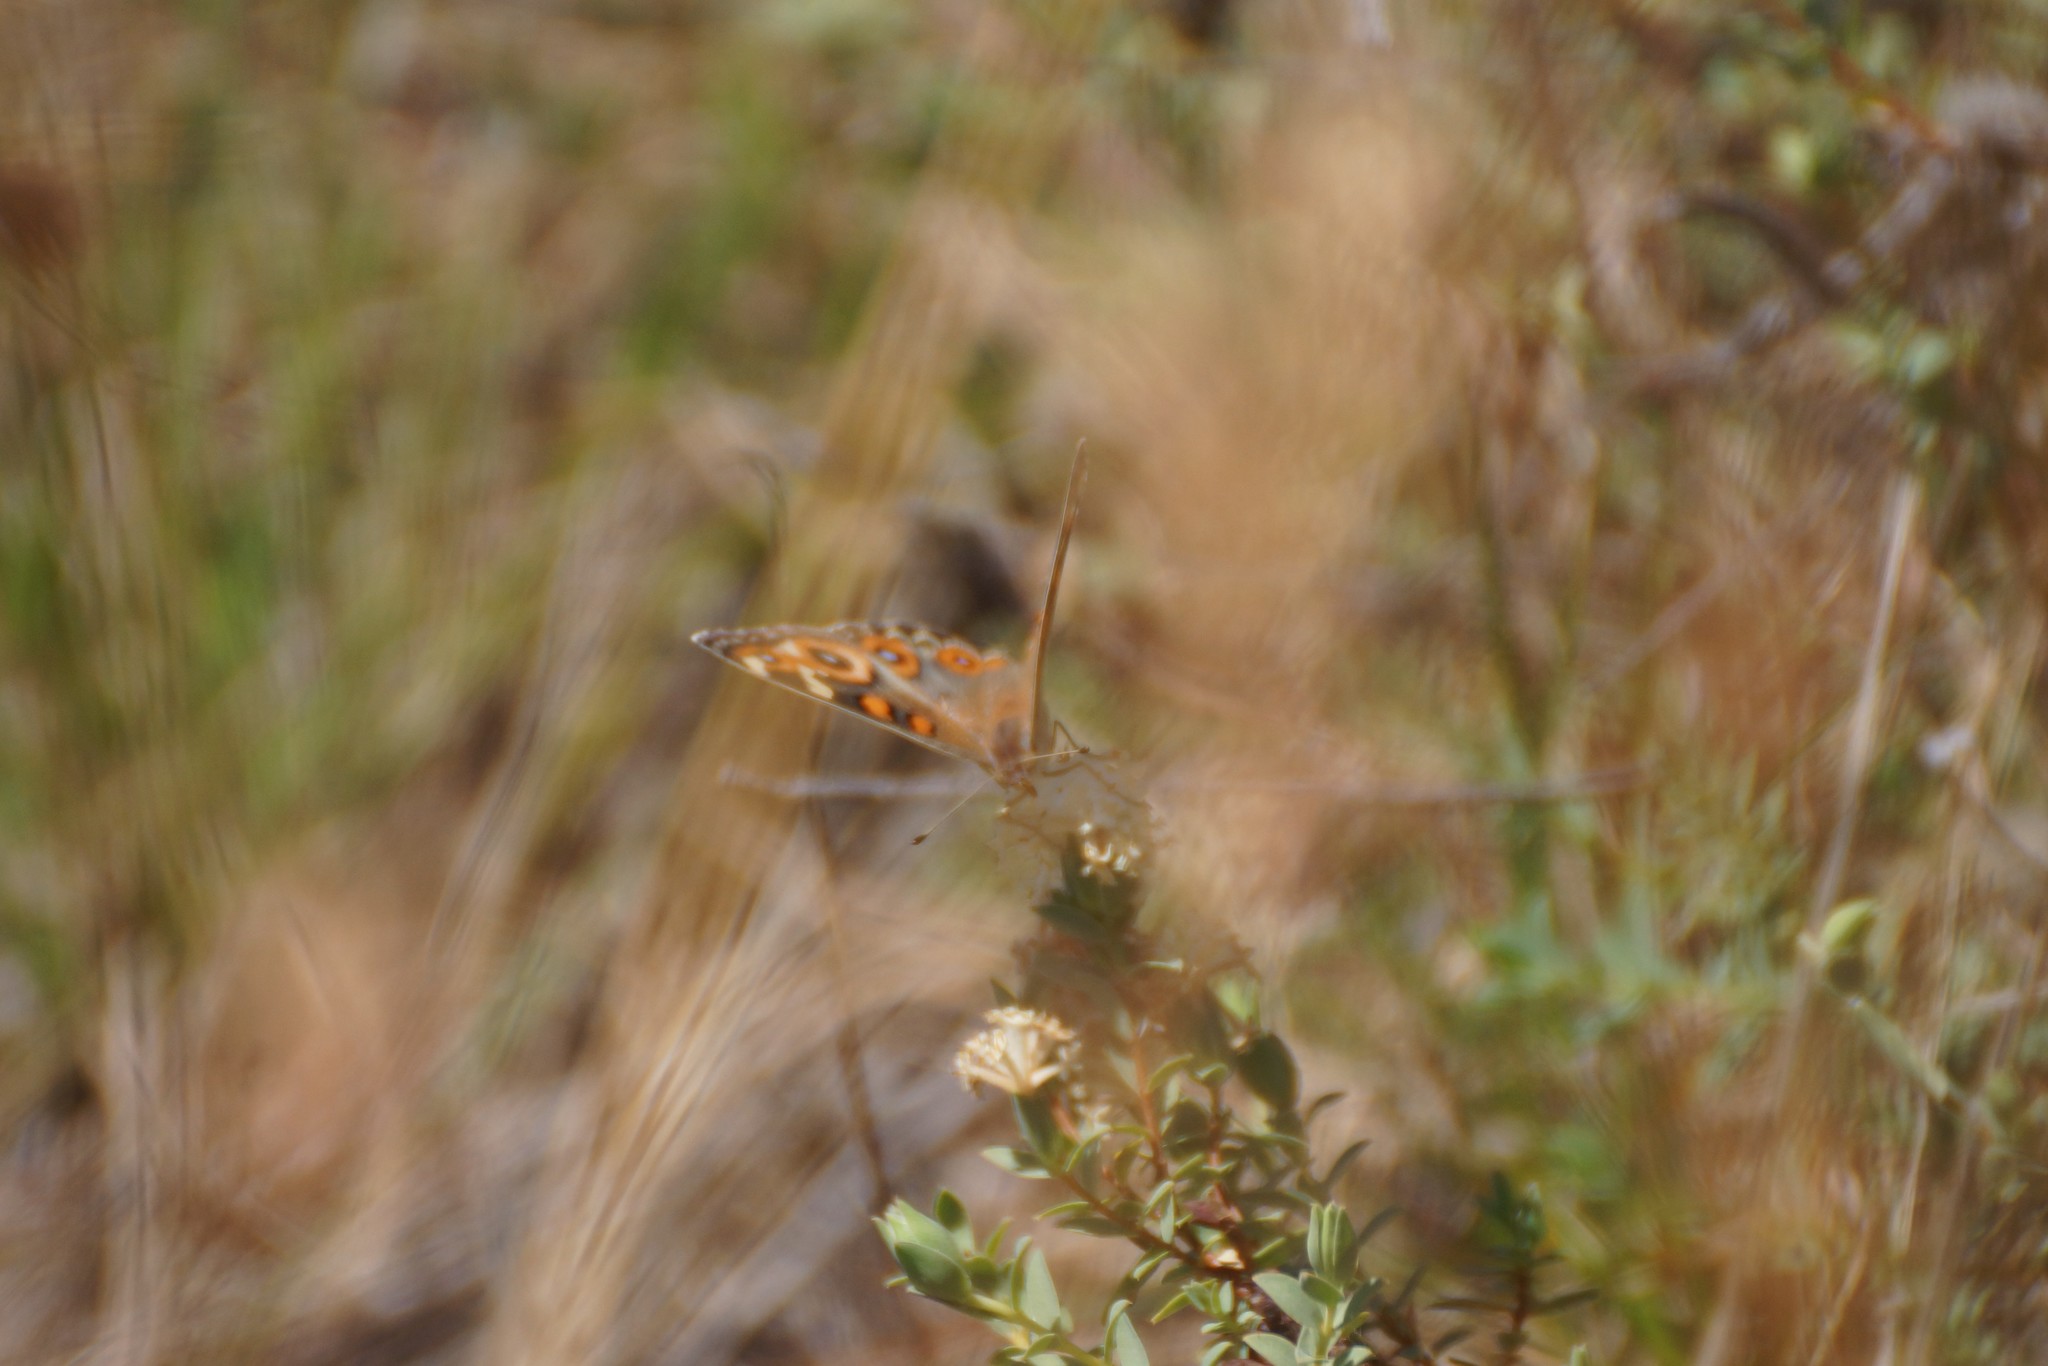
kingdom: Animalia
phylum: Arthropoda
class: Insecta
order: Lepidoptera
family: Nymphalidae
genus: Junonia
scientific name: Junonia villida
